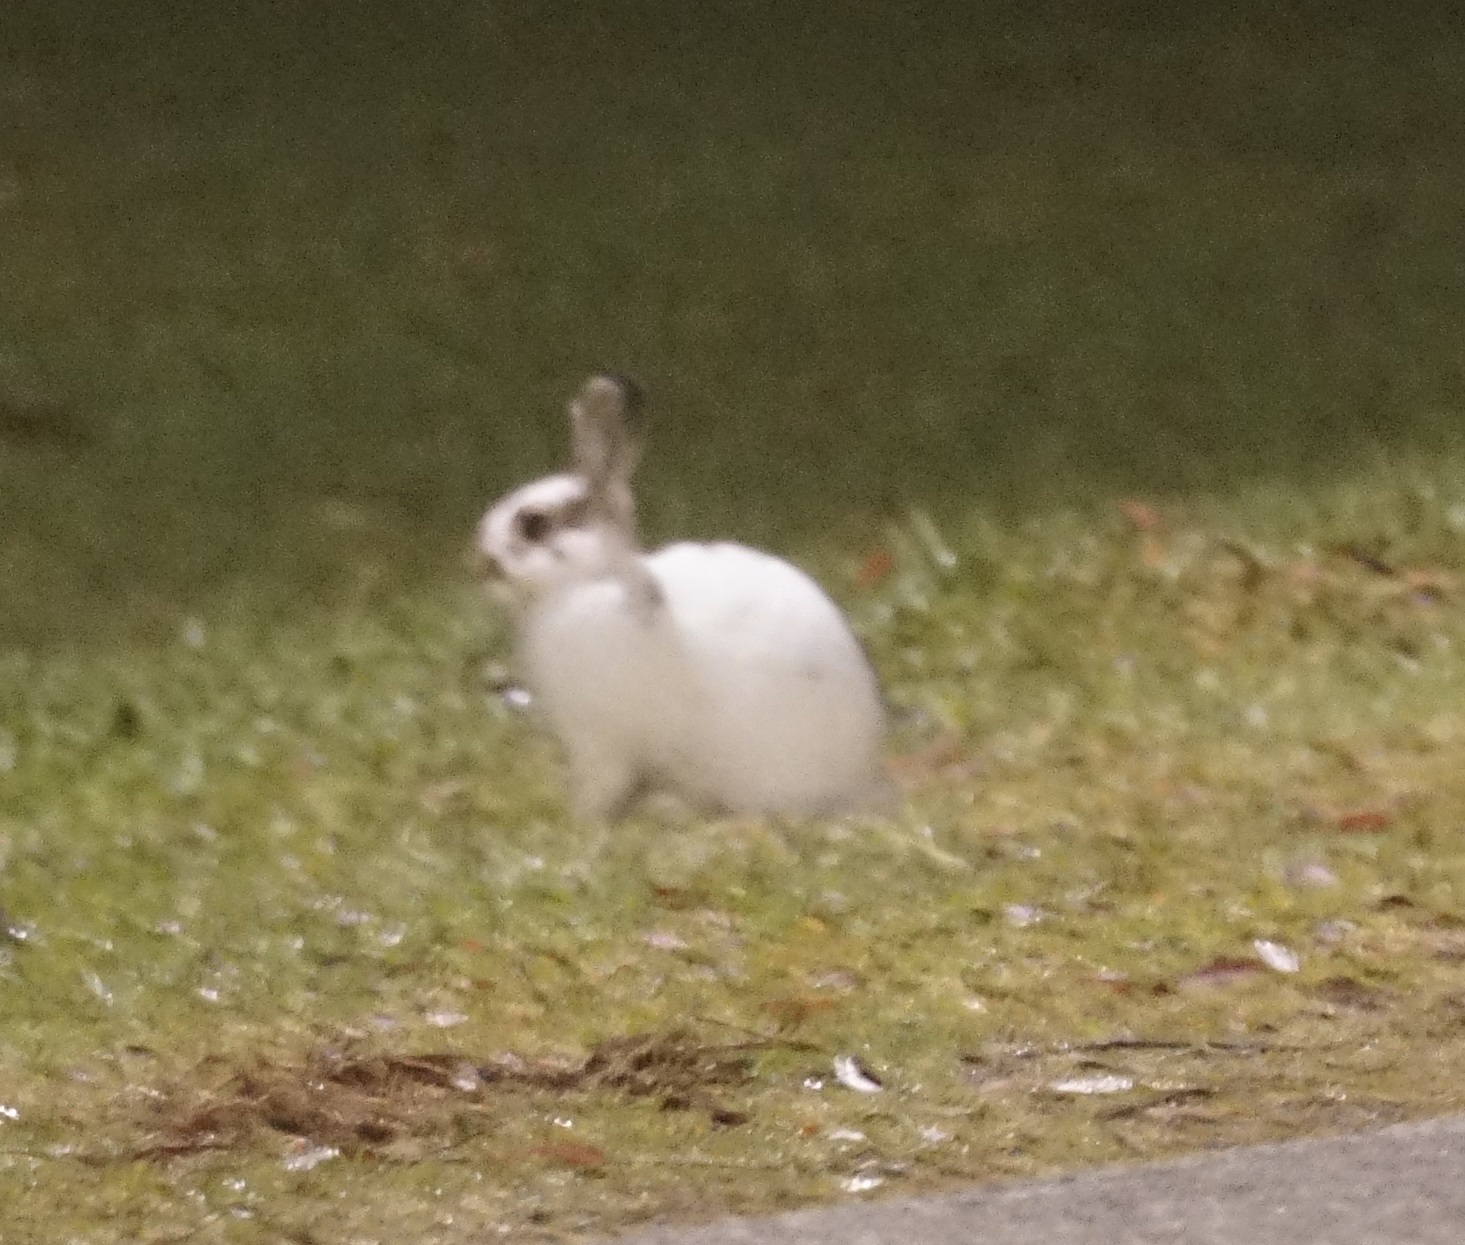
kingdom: Animalia
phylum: Chordata
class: Mammalia
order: Lagomorpha
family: Leporidae
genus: Oryctolagus
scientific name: Oryctolagus cuniculus
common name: European rabbit
